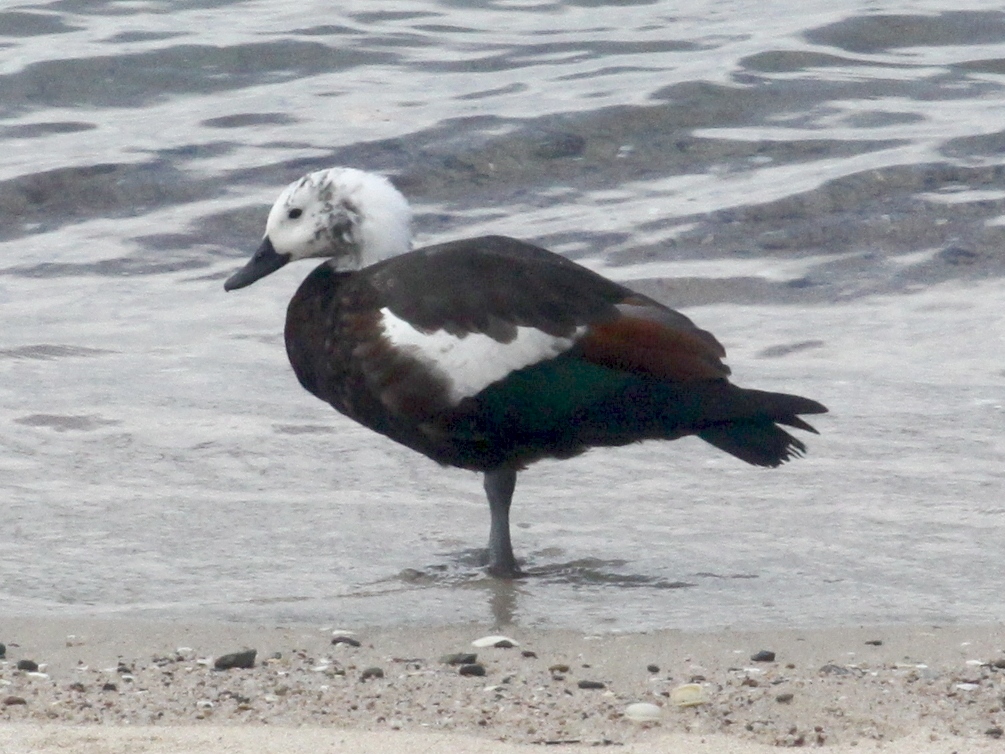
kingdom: Animalia
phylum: Chordata
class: Aves
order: Anseriformes
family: Anatidae
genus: Tadorna
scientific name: Tadorna variegata
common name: Paradise shelduck
